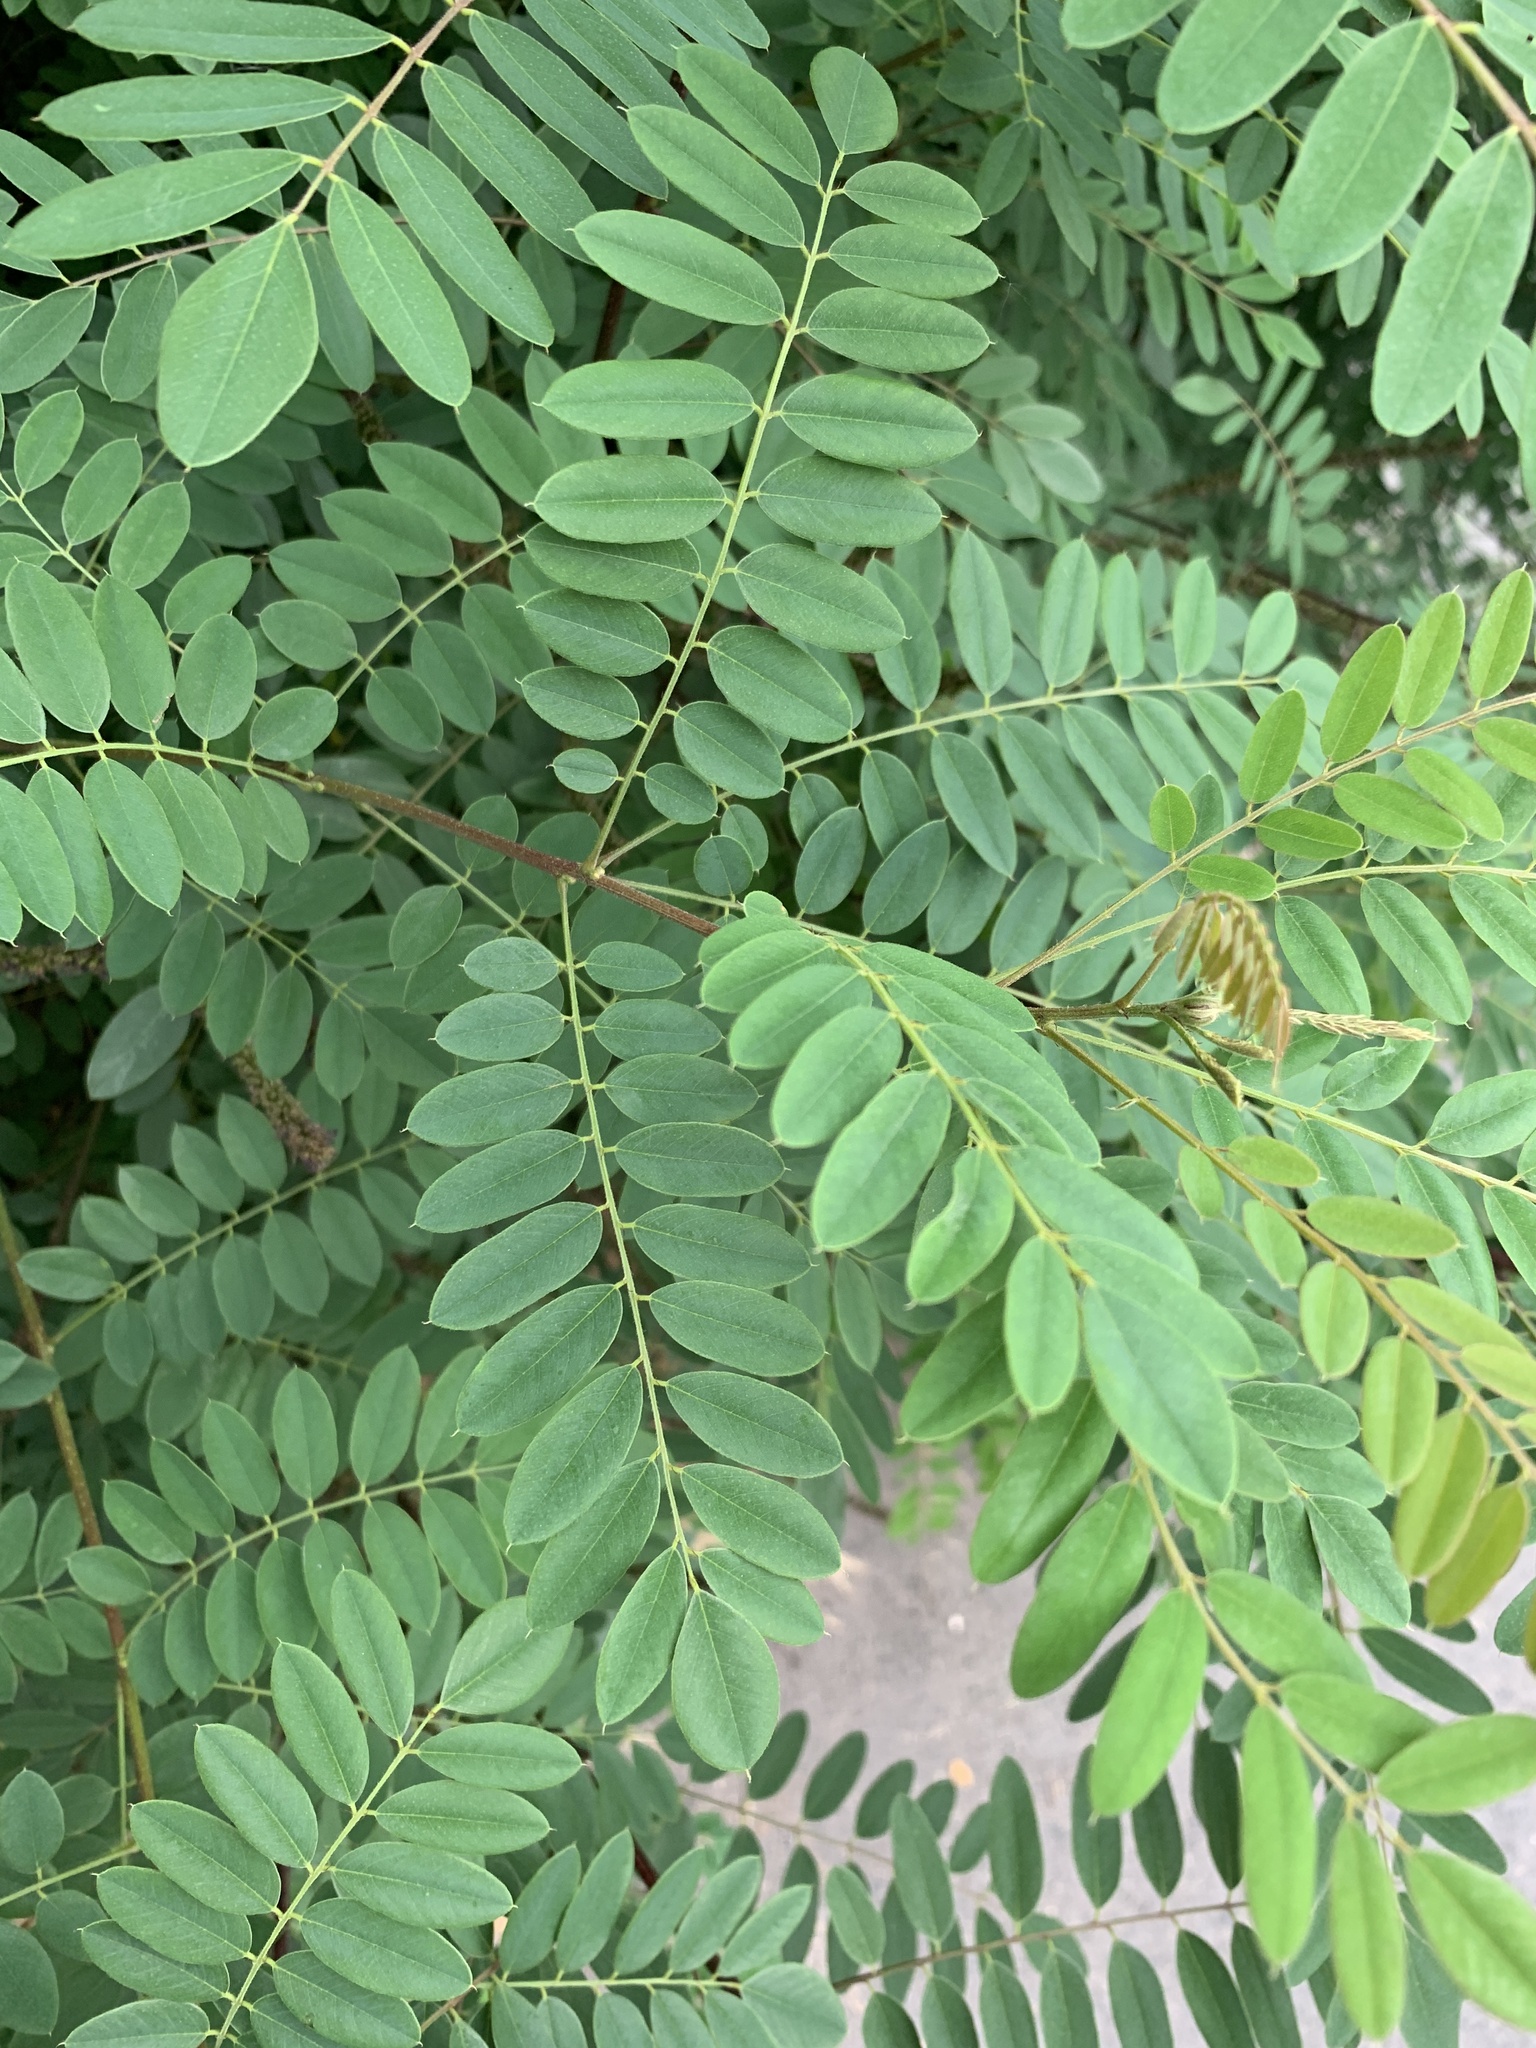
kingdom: Plantae
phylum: Tracheophyta
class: Magnoliopsida
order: Fabales
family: Fabaceae
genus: Robinia
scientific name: Robinia pseudoacacia
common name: Black locust
